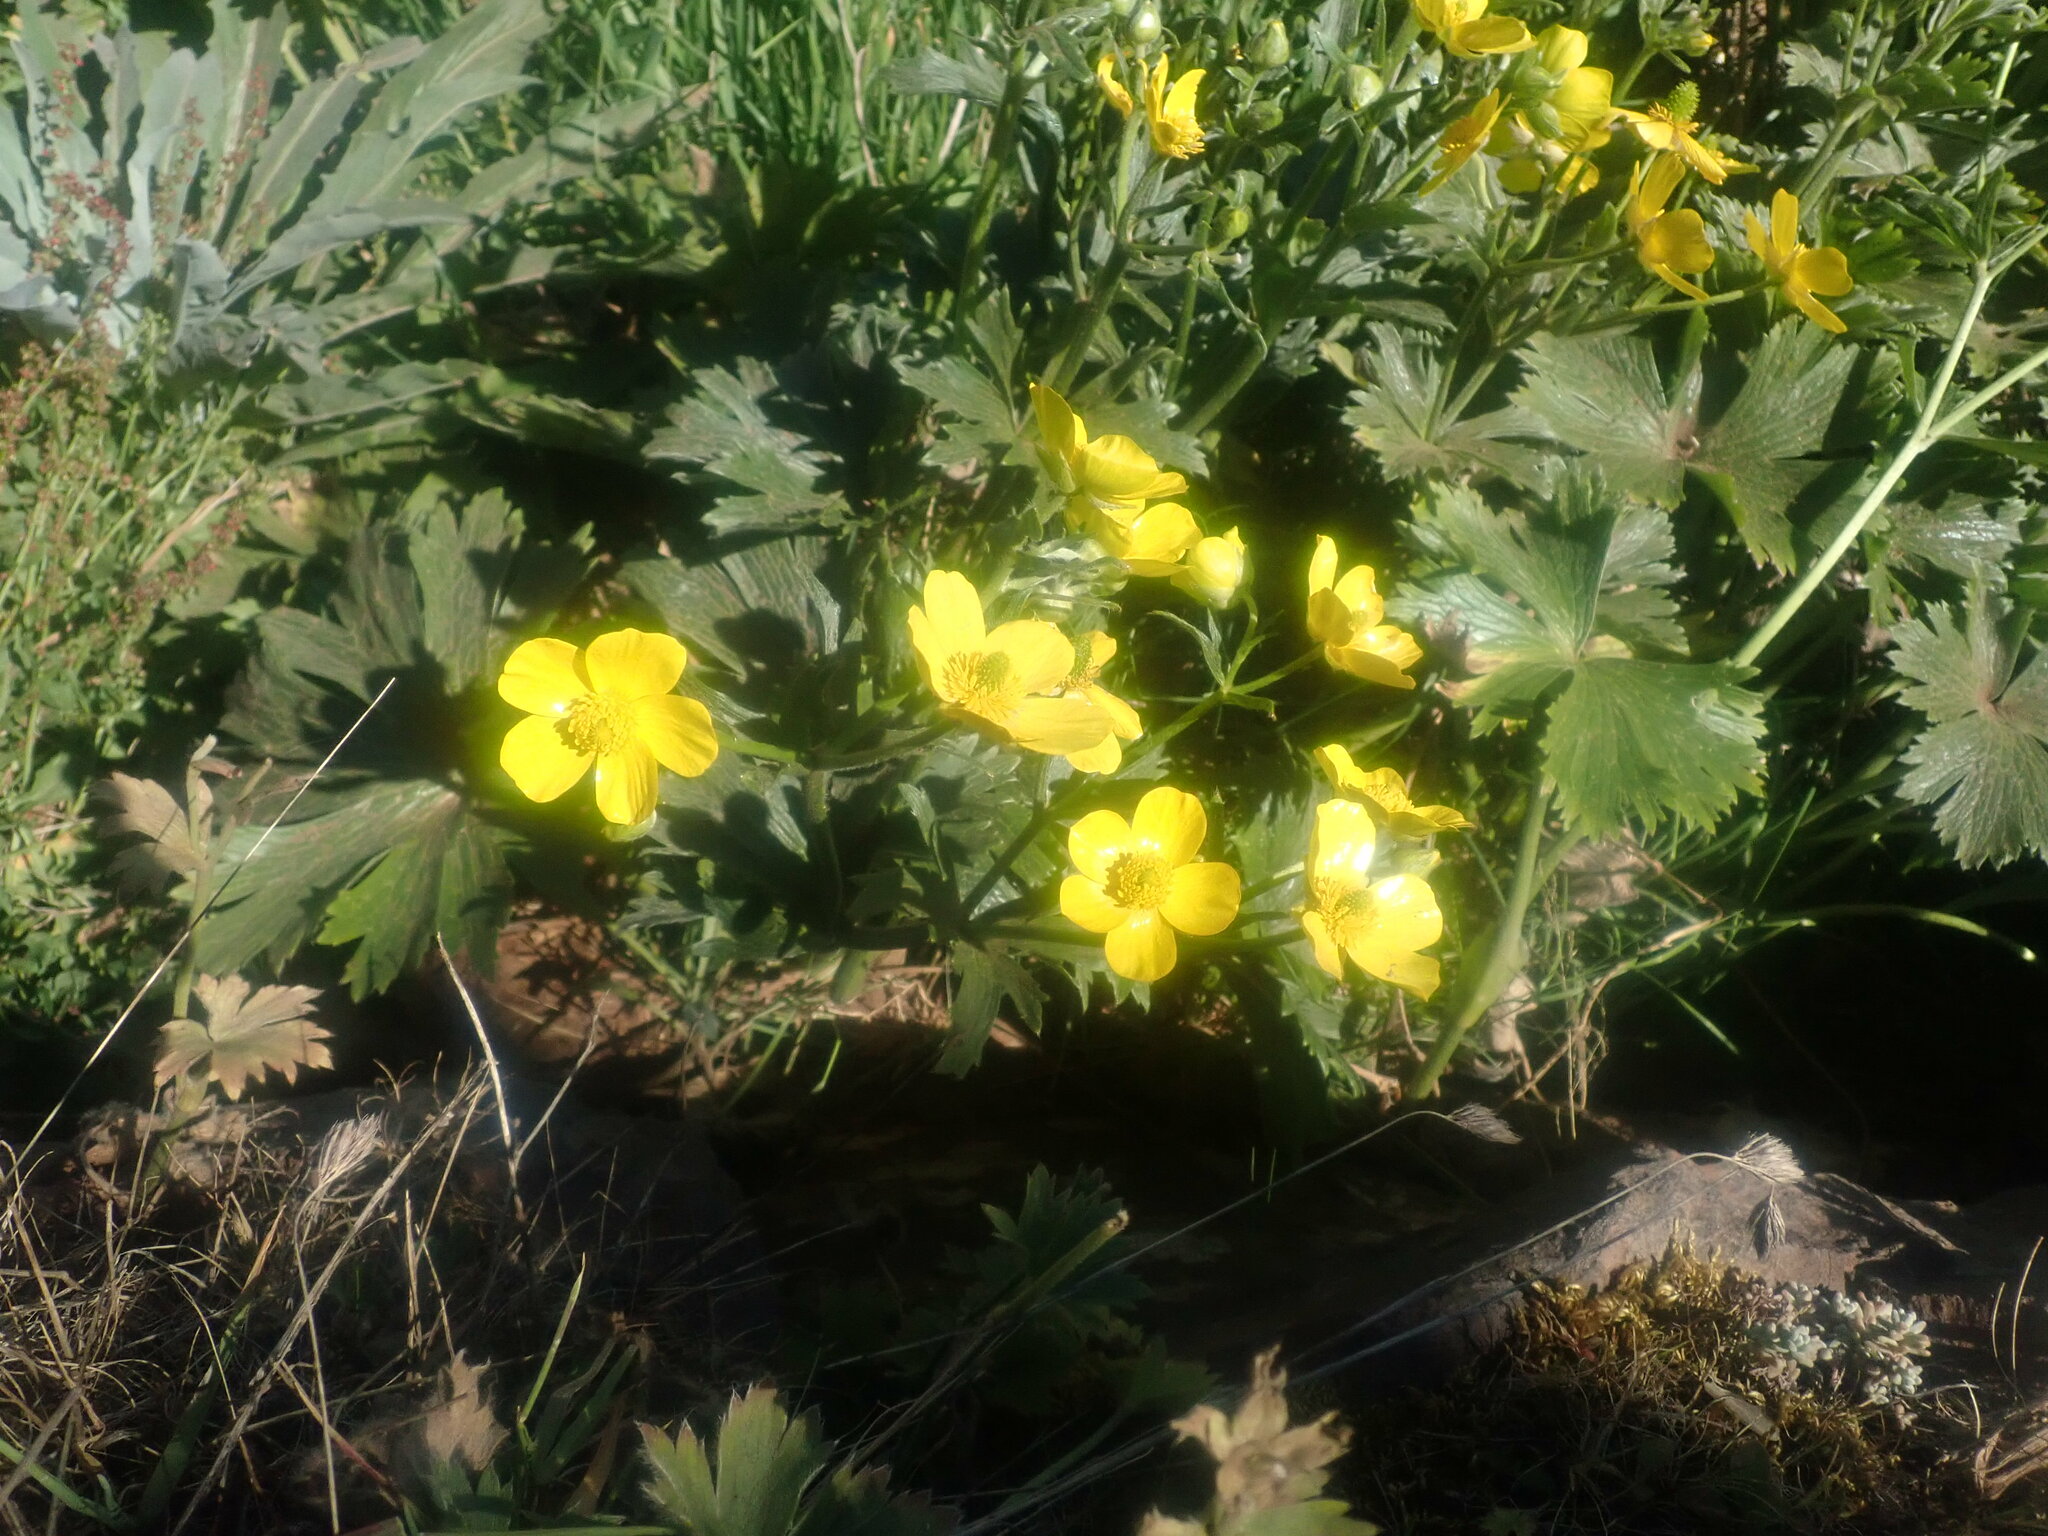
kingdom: Plantae
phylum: Tracheophyta
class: Magnoliopsida
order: Ranunculales
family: Ranunculaceae
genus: Ranunculus
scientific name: Ranunculus cortusifolius
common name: Azores buttercup
